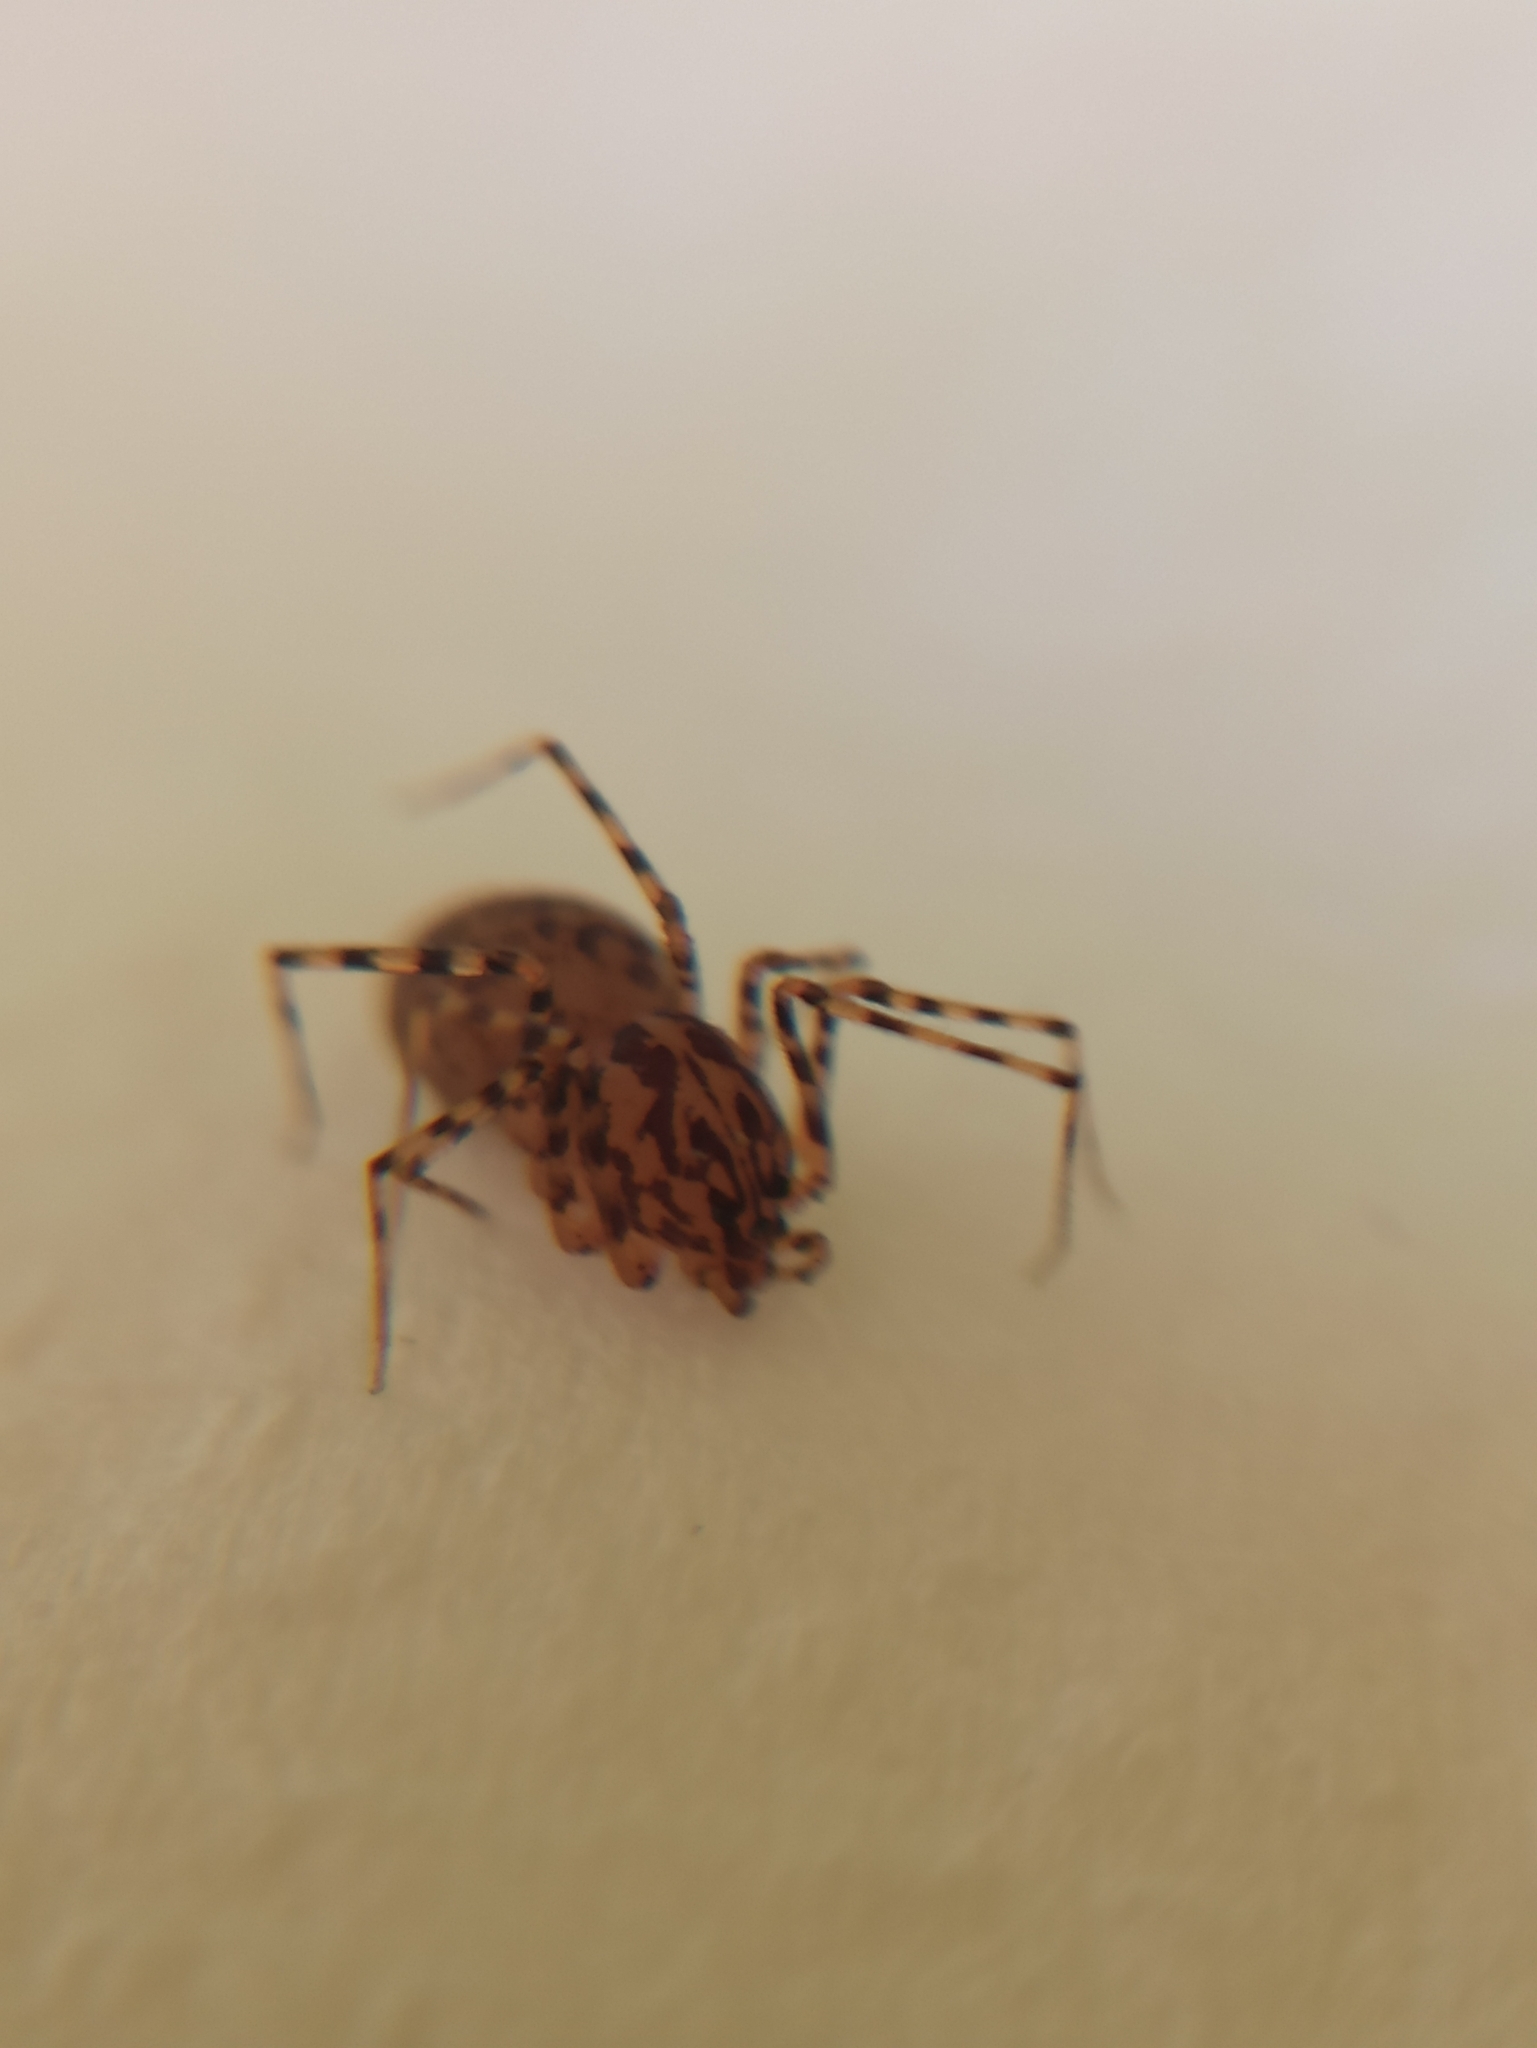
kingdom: Animalia
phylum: Arthropoda
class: Arachnida
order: Araneae
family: Scytodidae
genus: Scytodes
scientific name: Scytodes thoracica
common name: Spitting spider
